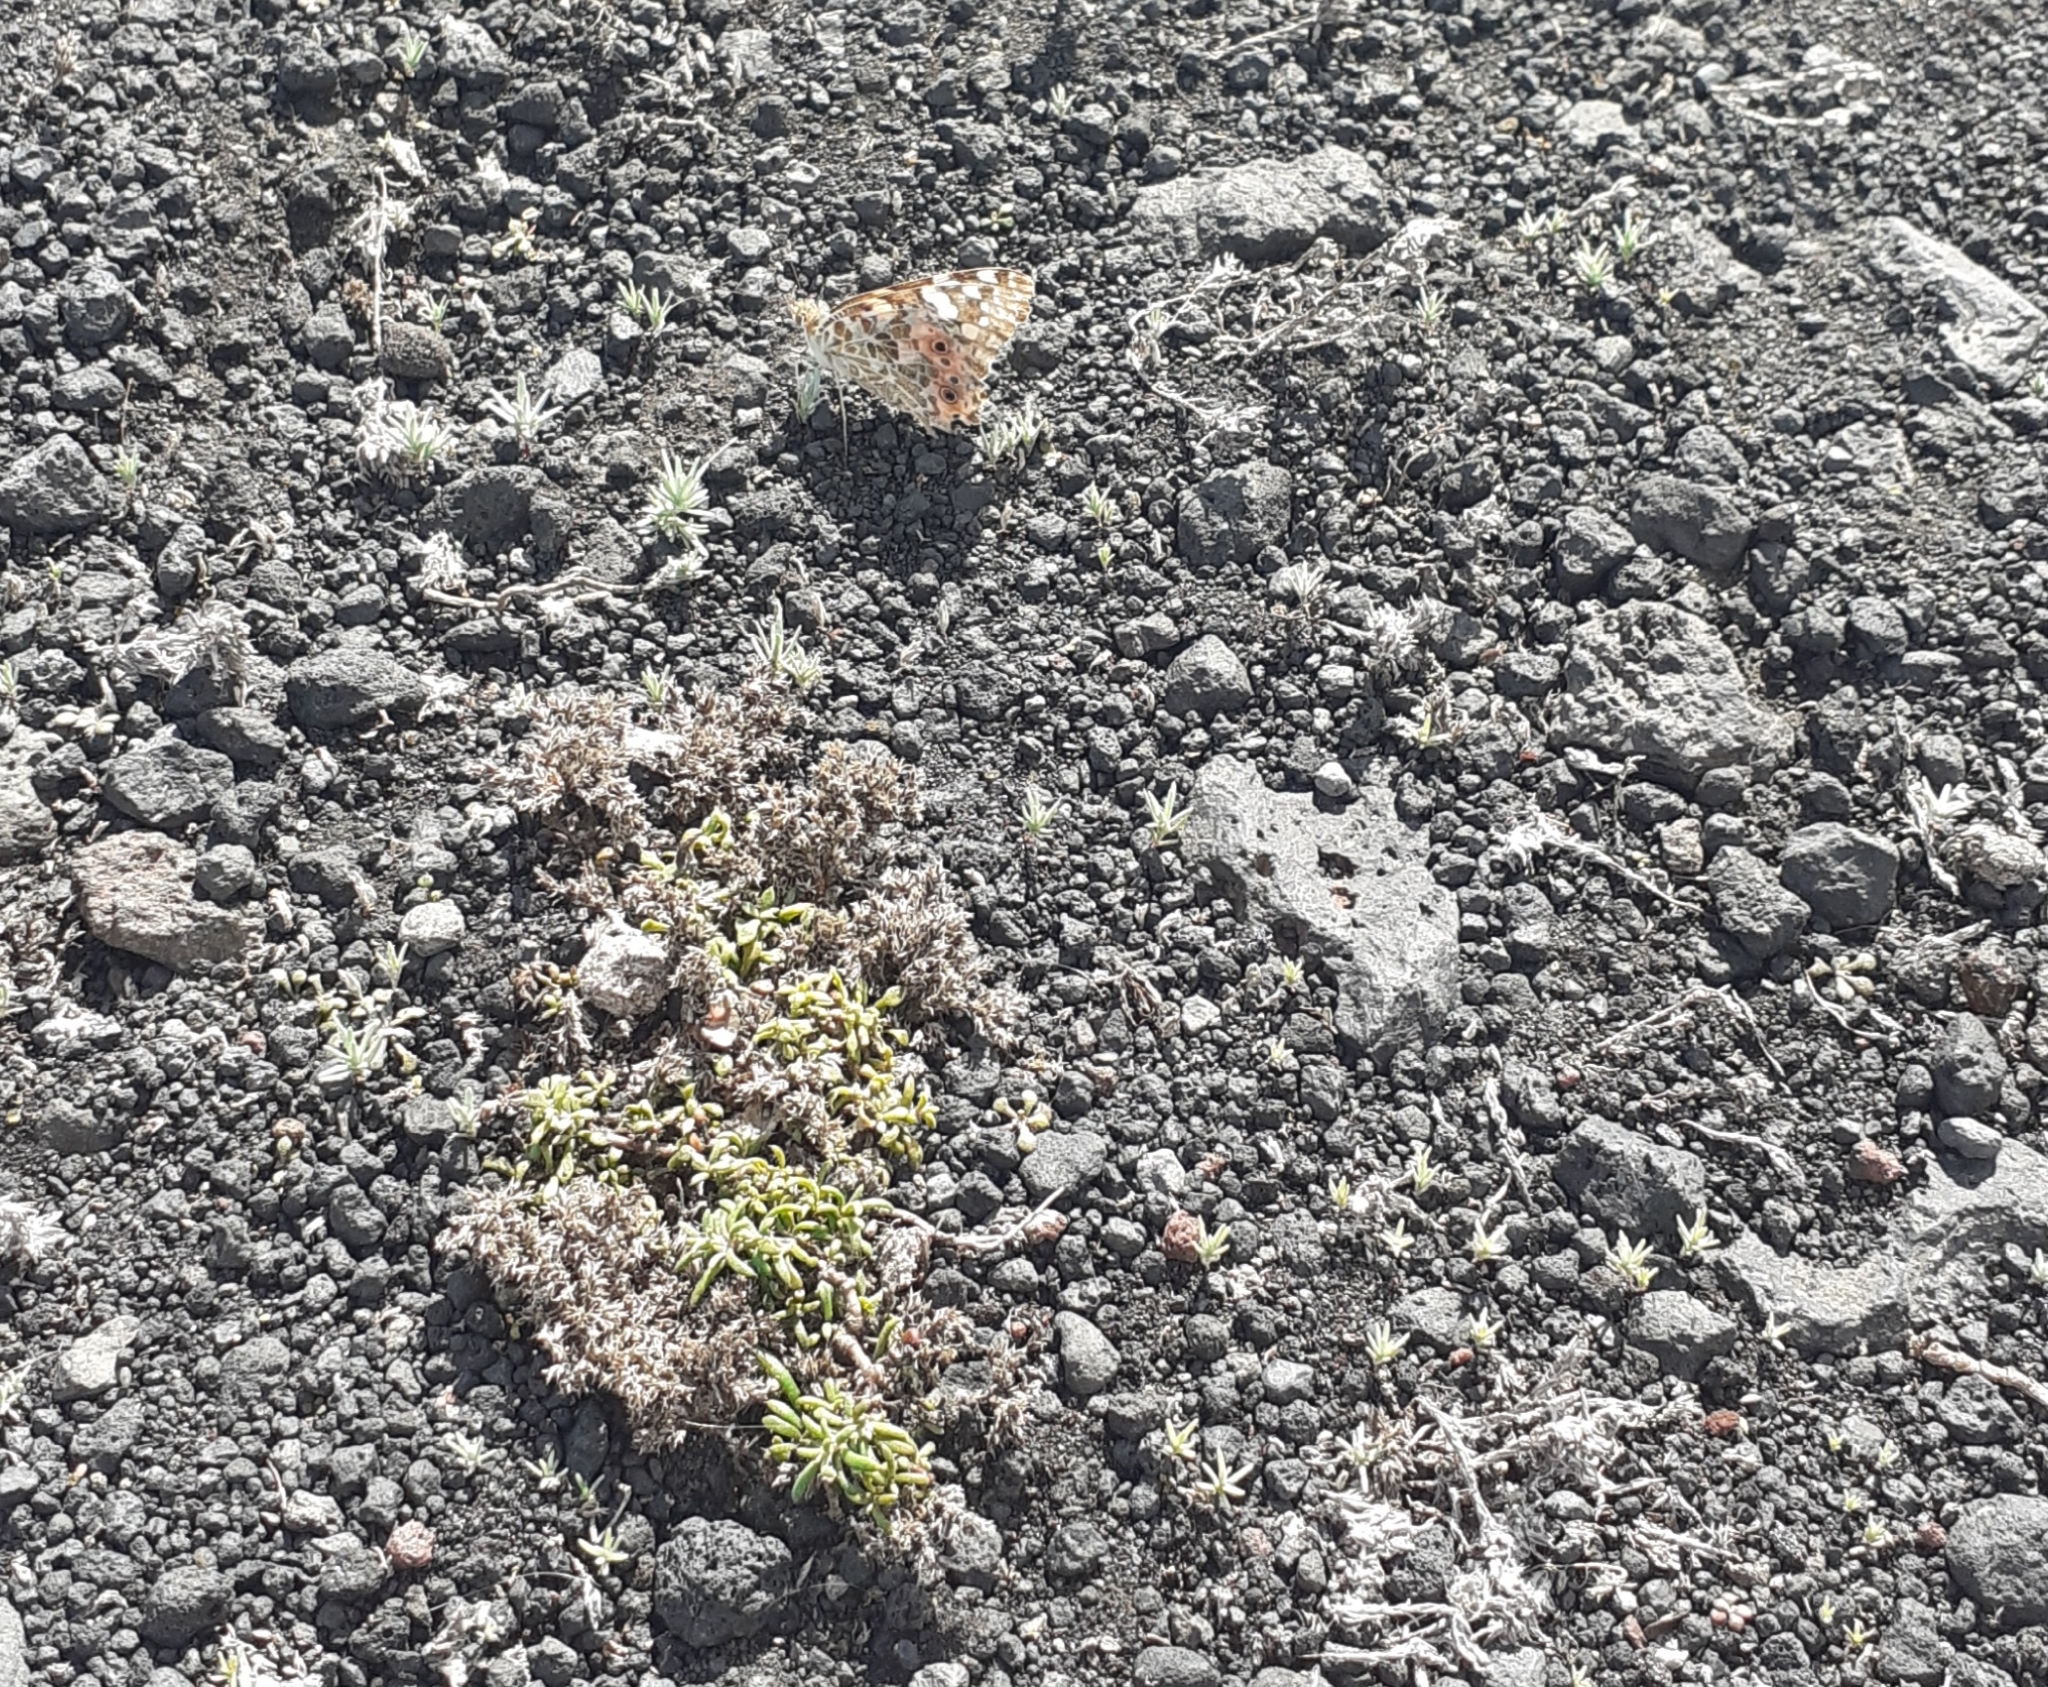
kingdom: Animalia
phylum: Arthropoda
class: Insecta
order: Lepidoptera
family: Nymphalidae
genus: Vanessa
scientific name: Vanessa cardui
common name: Painted lady
